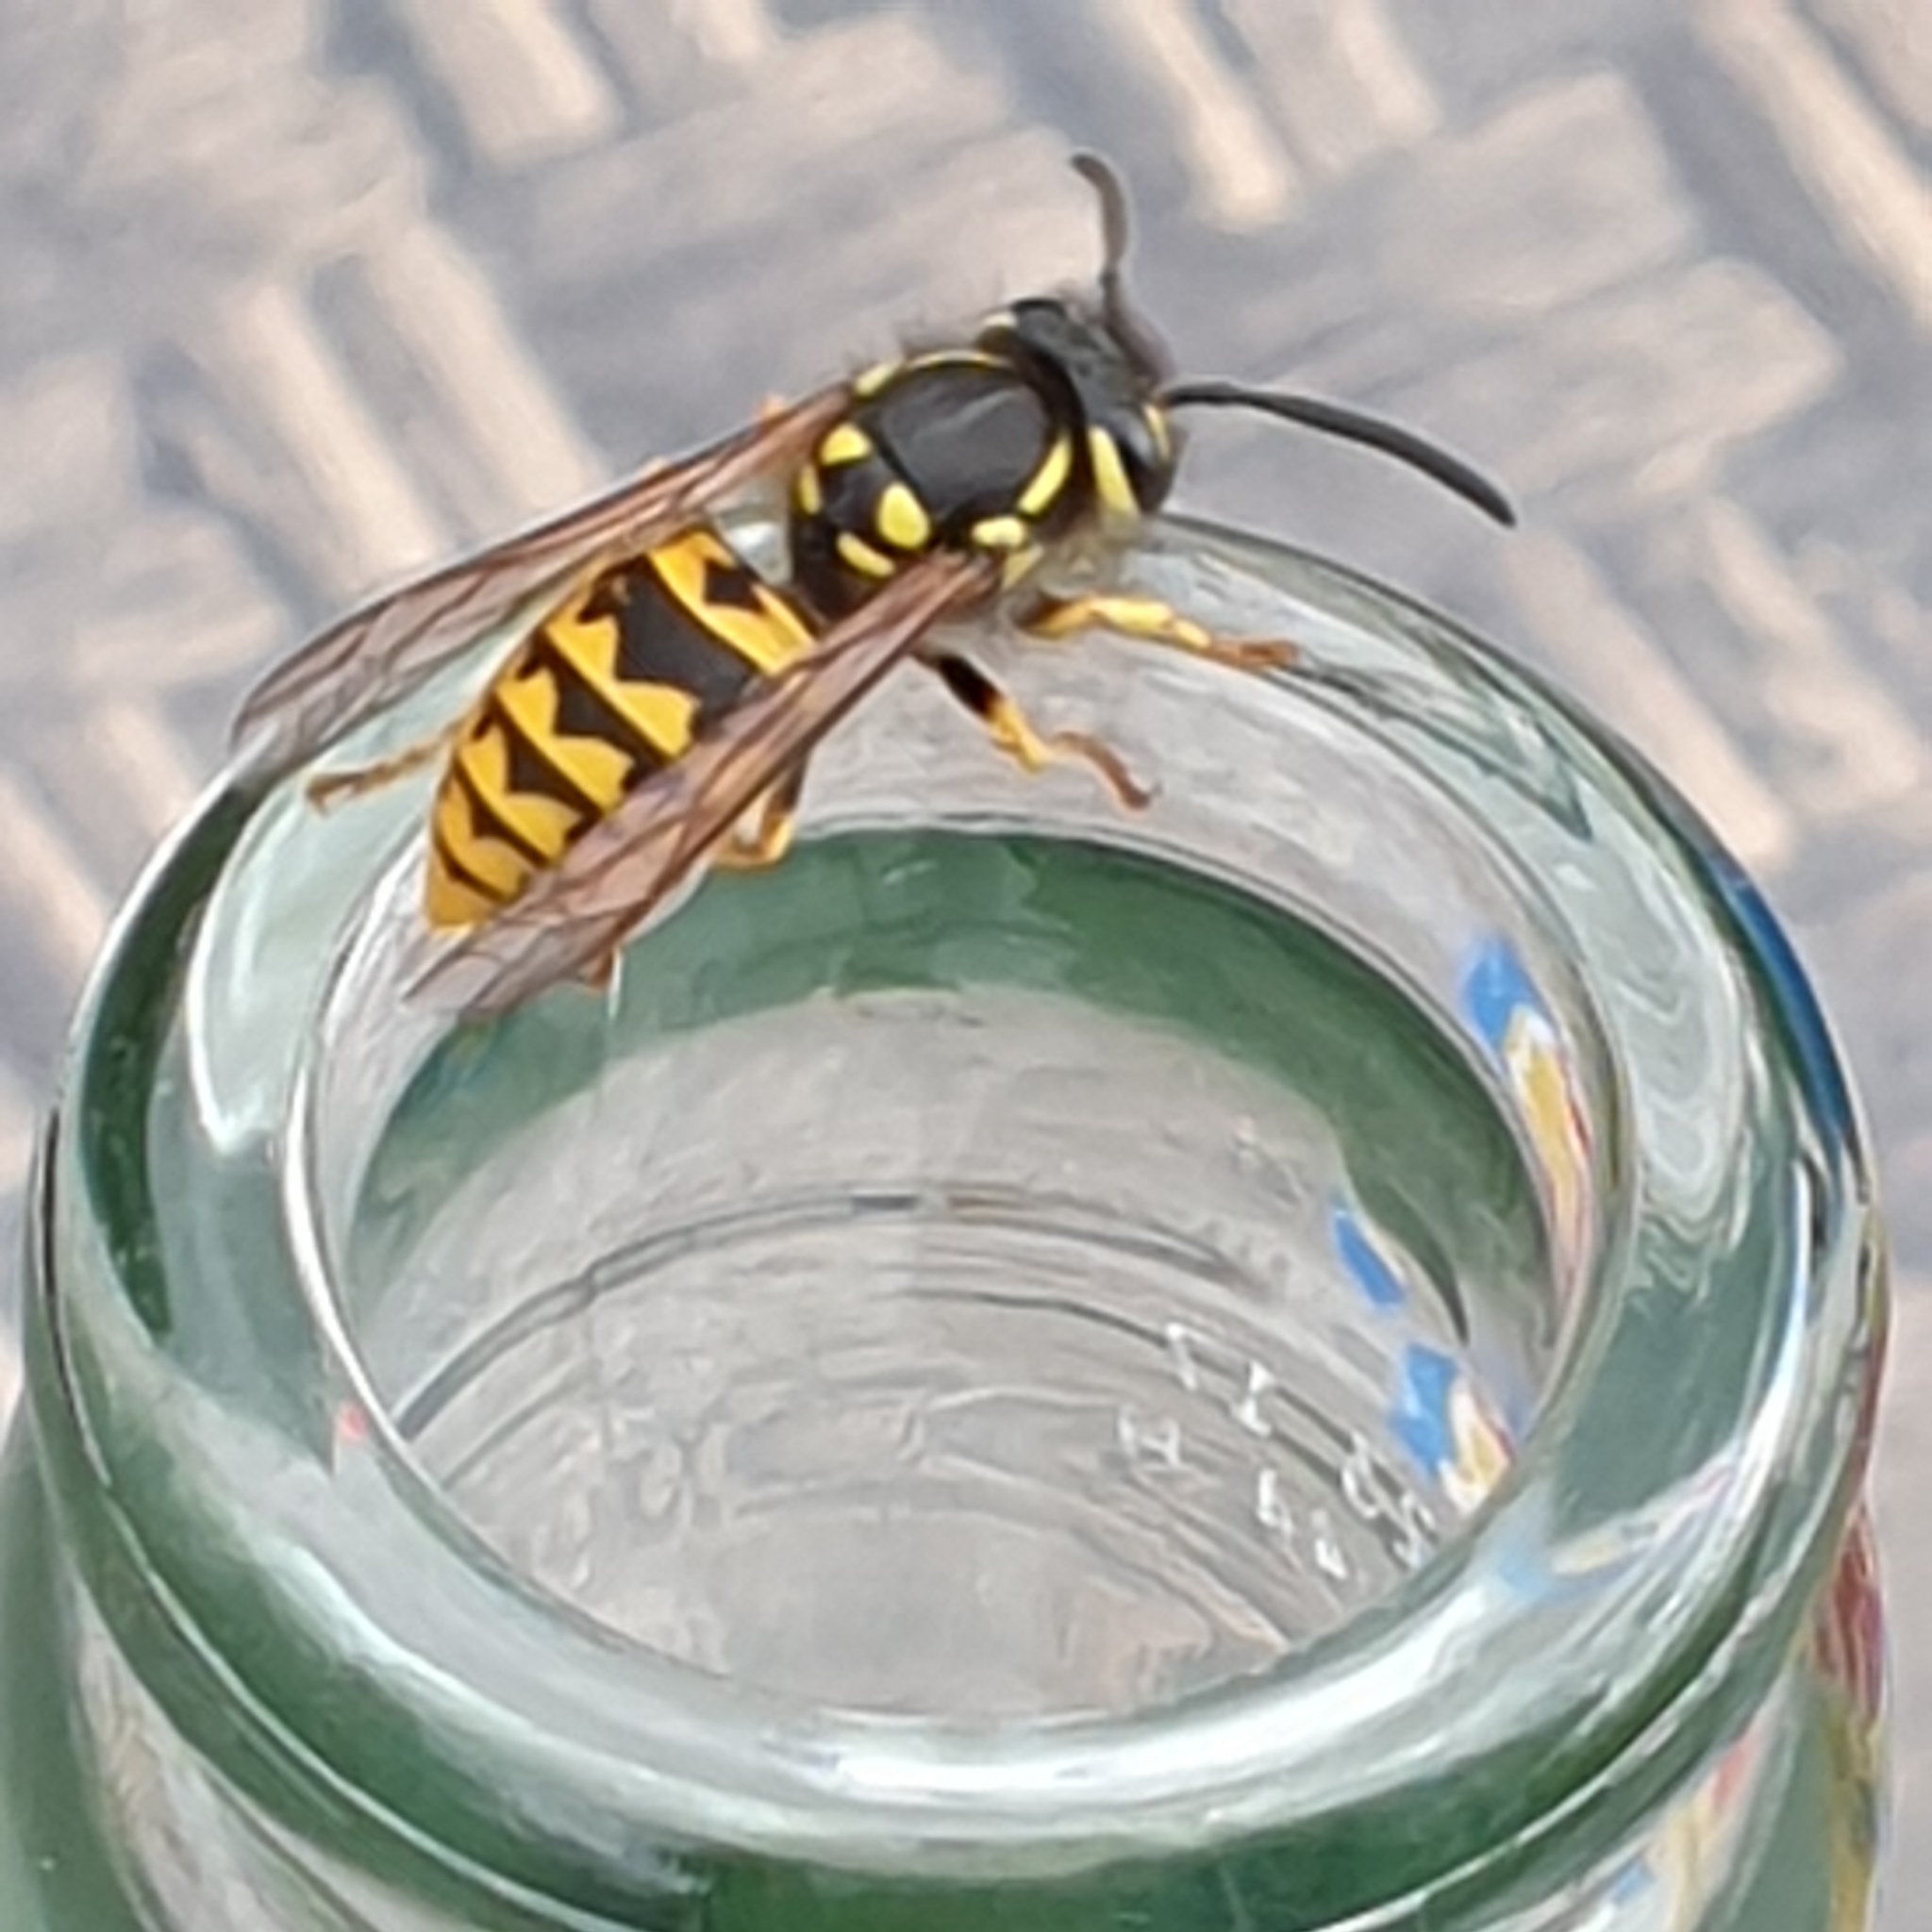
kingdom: Animalia
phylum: Arthropoda
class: Insecta
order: Hymenoptera
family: Vespidae
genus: Vespula
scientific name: Vespula germanica
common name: German wasp
